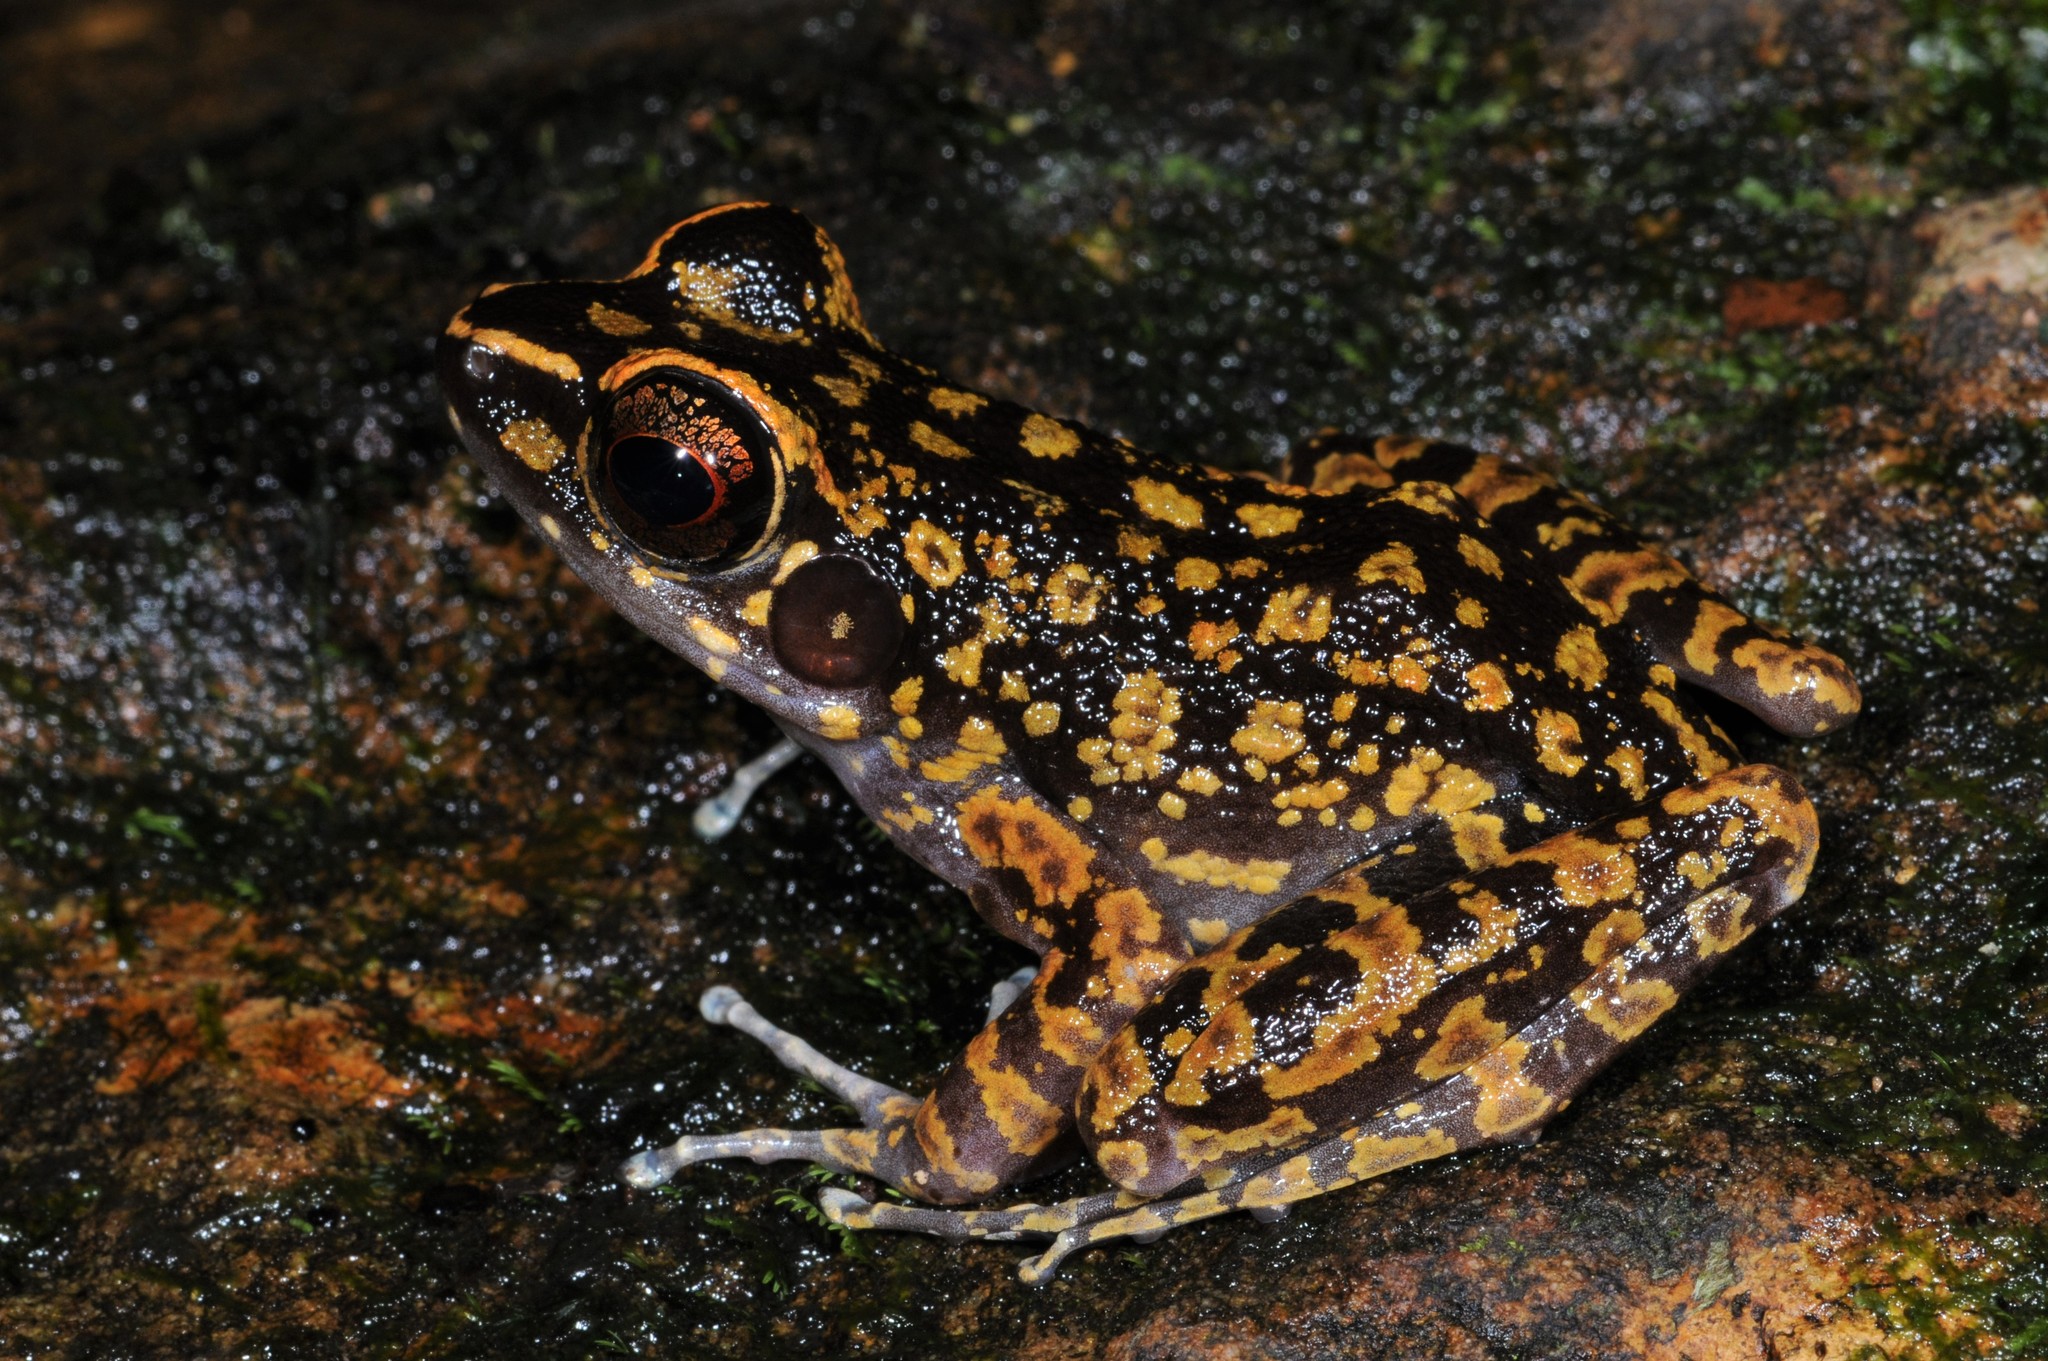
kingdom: Animalia
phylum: Chordata
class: Amphibia
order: Anura
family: Ranidae
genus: Pulchrana
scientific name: Pulchrana picturata
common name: Spotted stream frog
